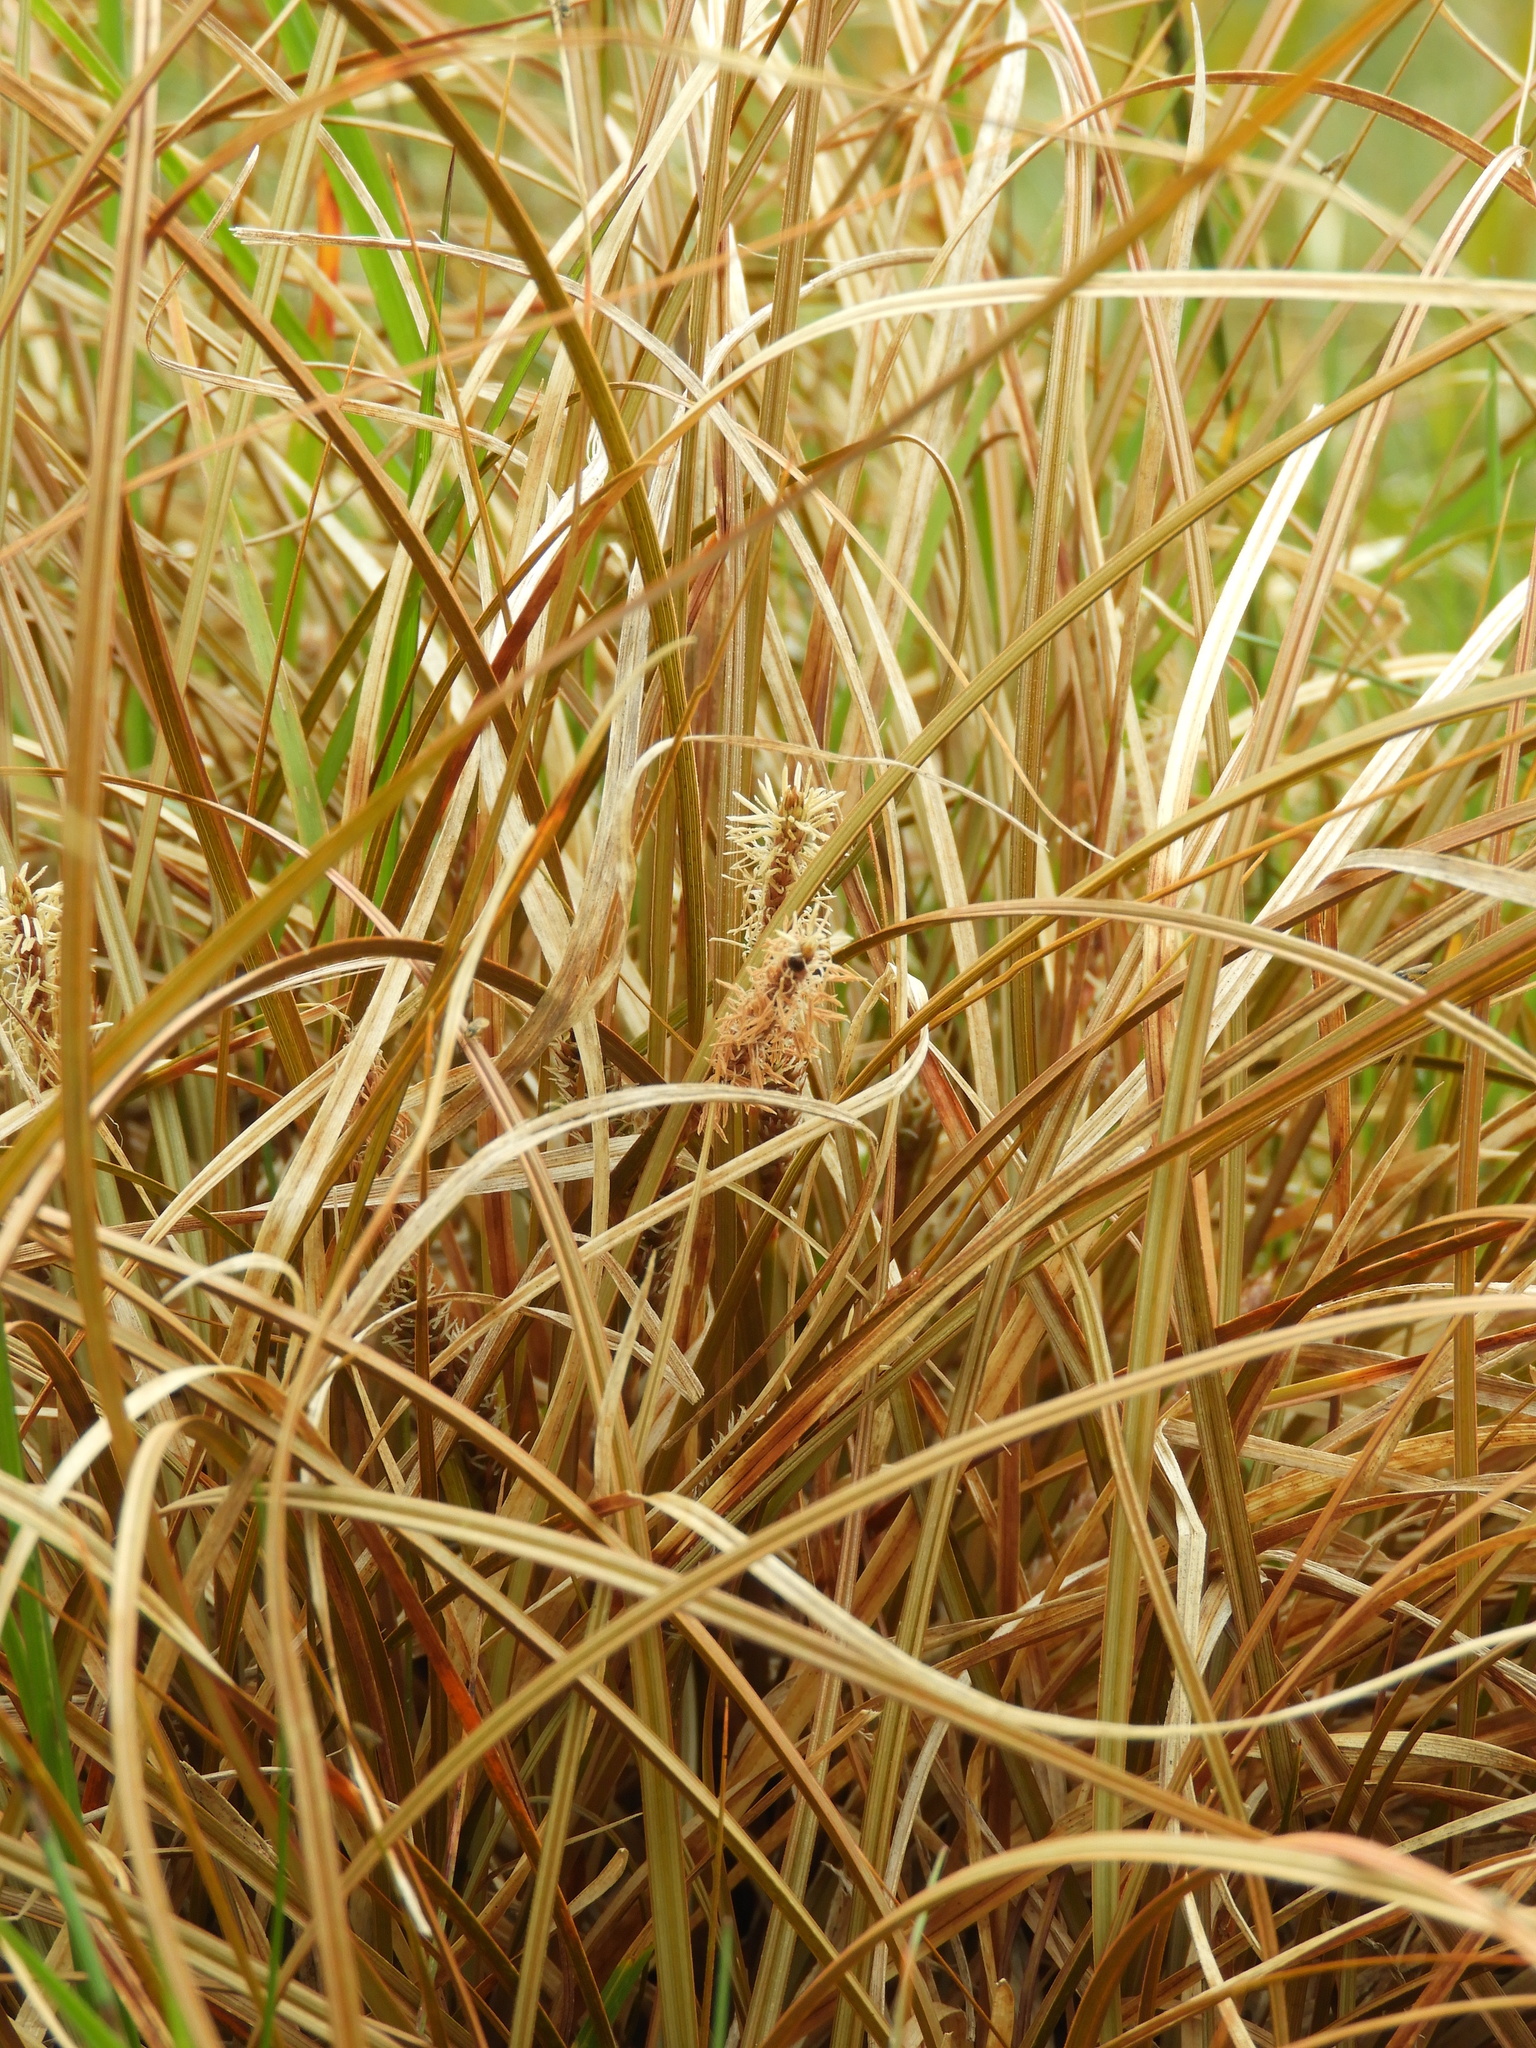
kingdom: Plantae
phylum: Tracheophyta
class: Liliopsida
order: Poales
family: Cyperaceae
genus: Carex
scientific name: Carex testacea
